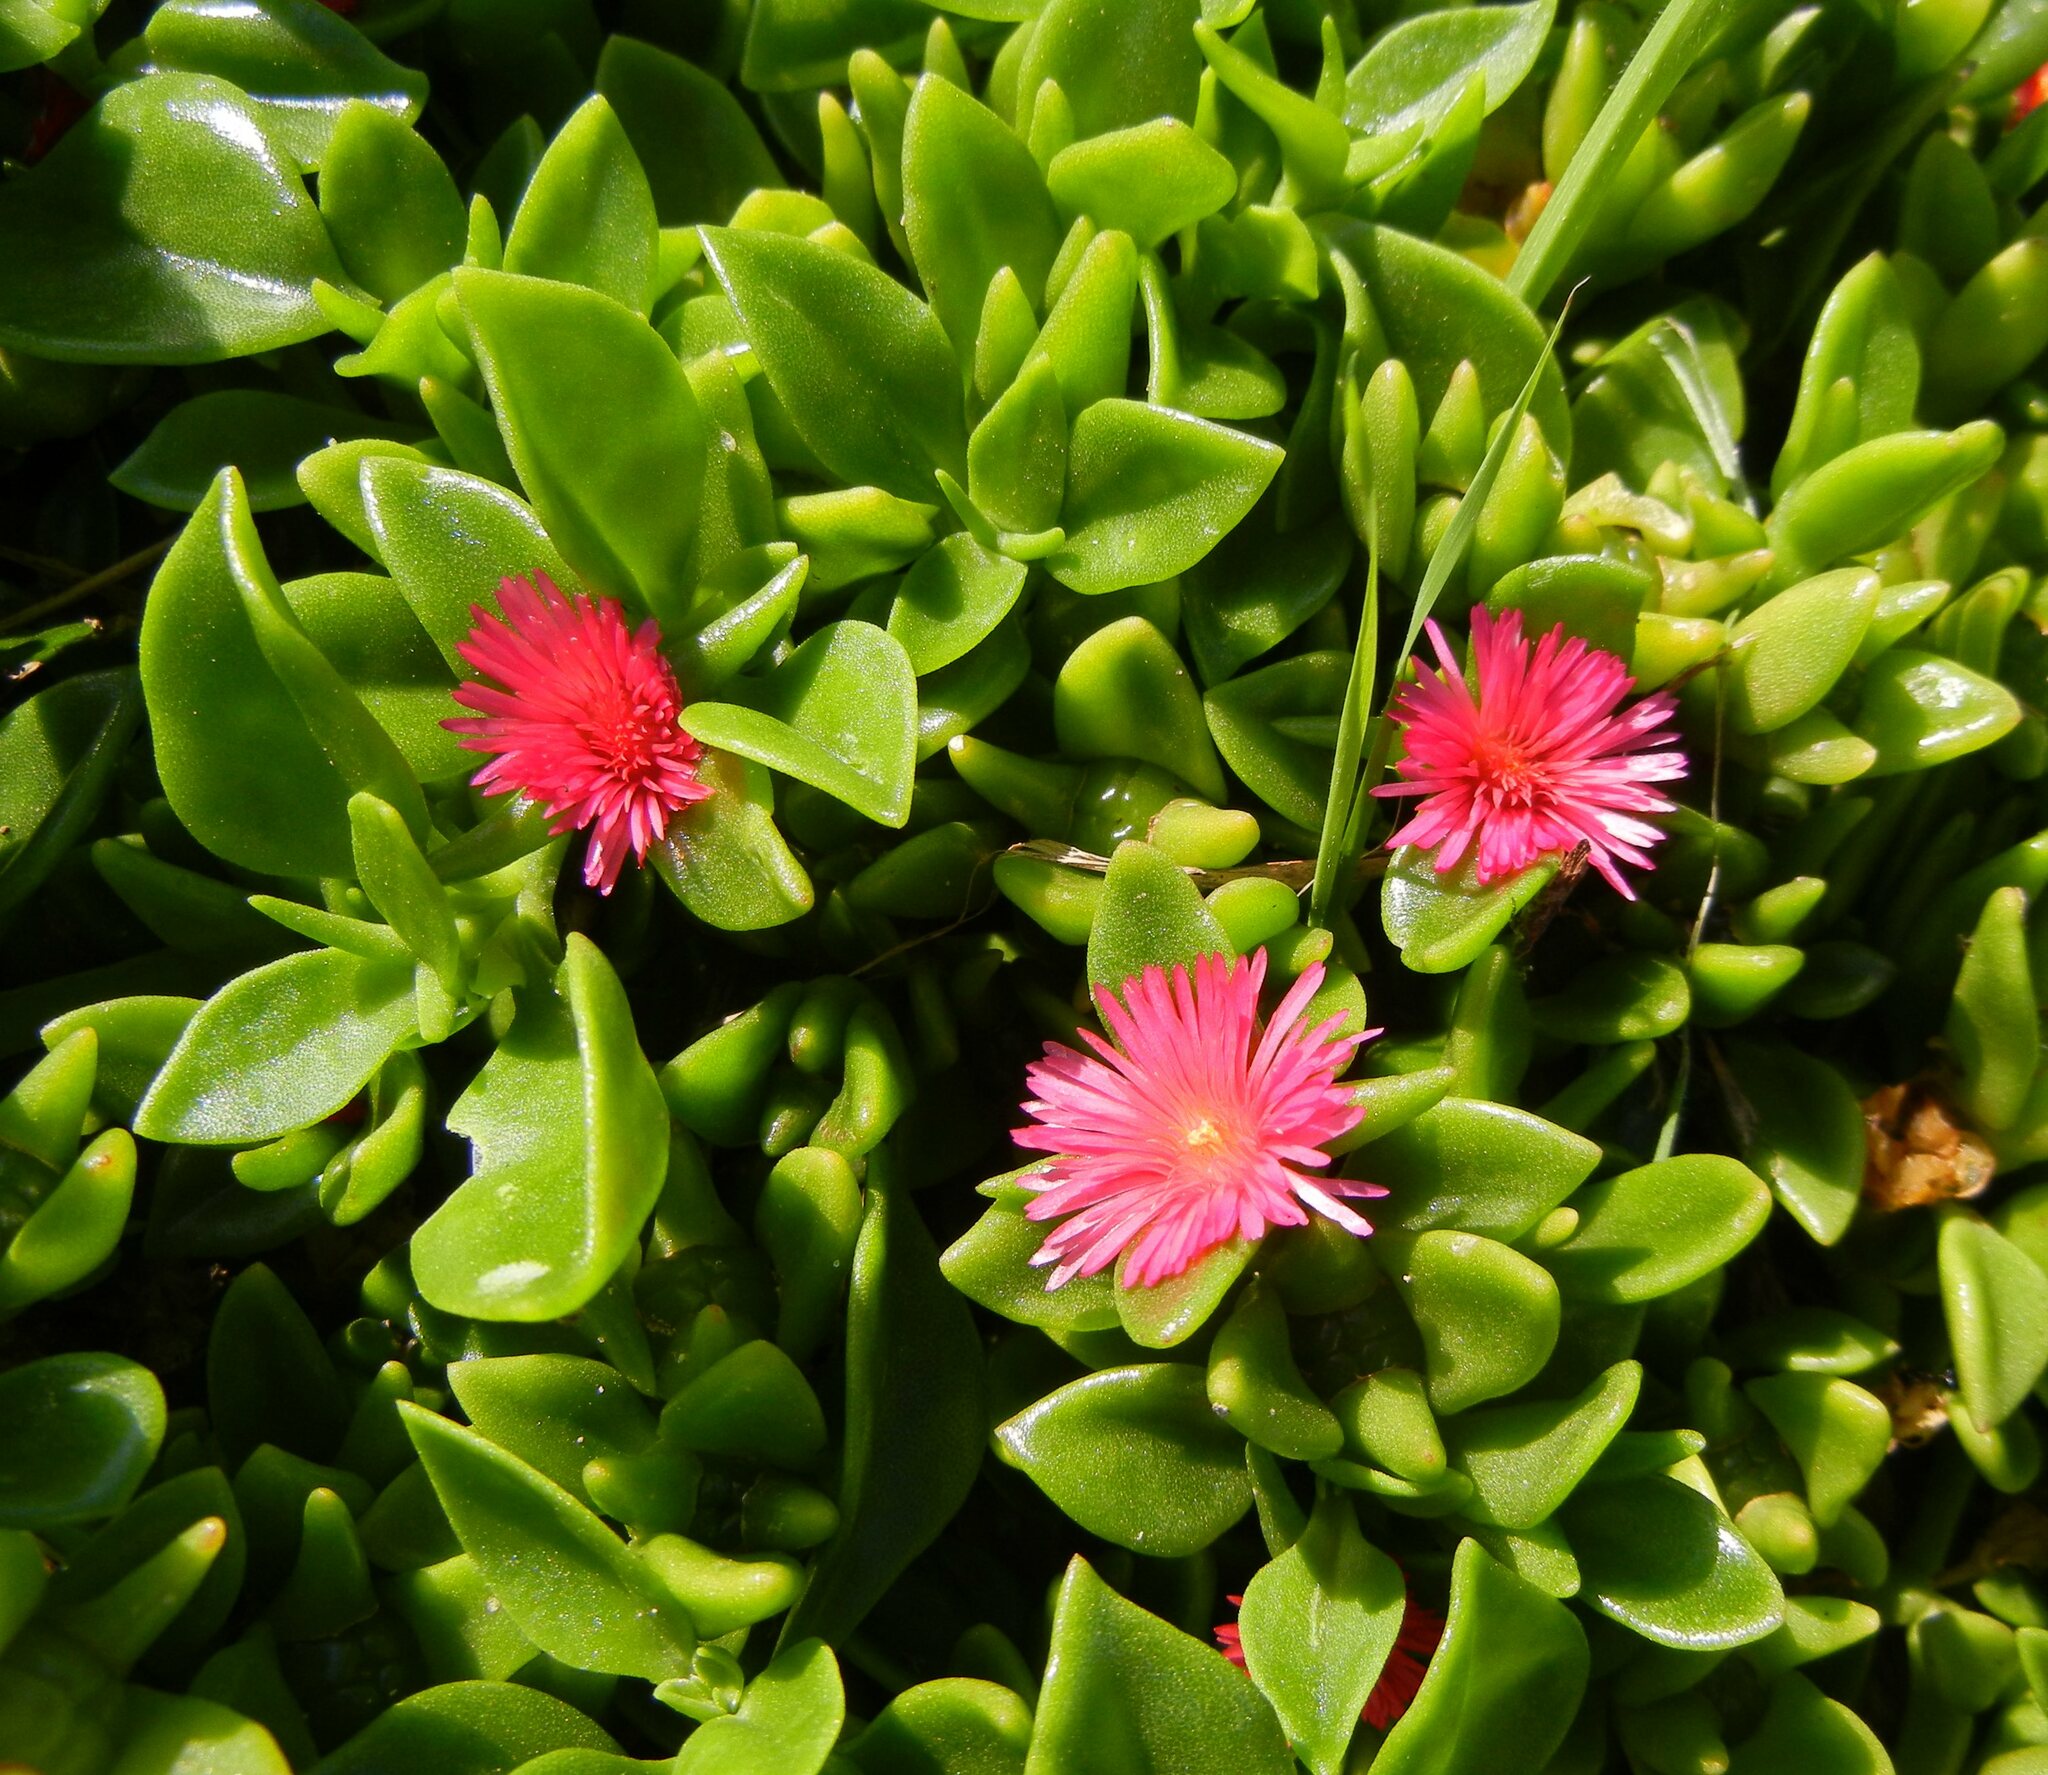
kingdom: Plantae
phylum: Tracheophyta
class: Magnoliopsida
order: Caryophyllales
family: Aizoaceae
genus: Mesembryanthemum
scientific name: Mesembryanthemum cordifolium
